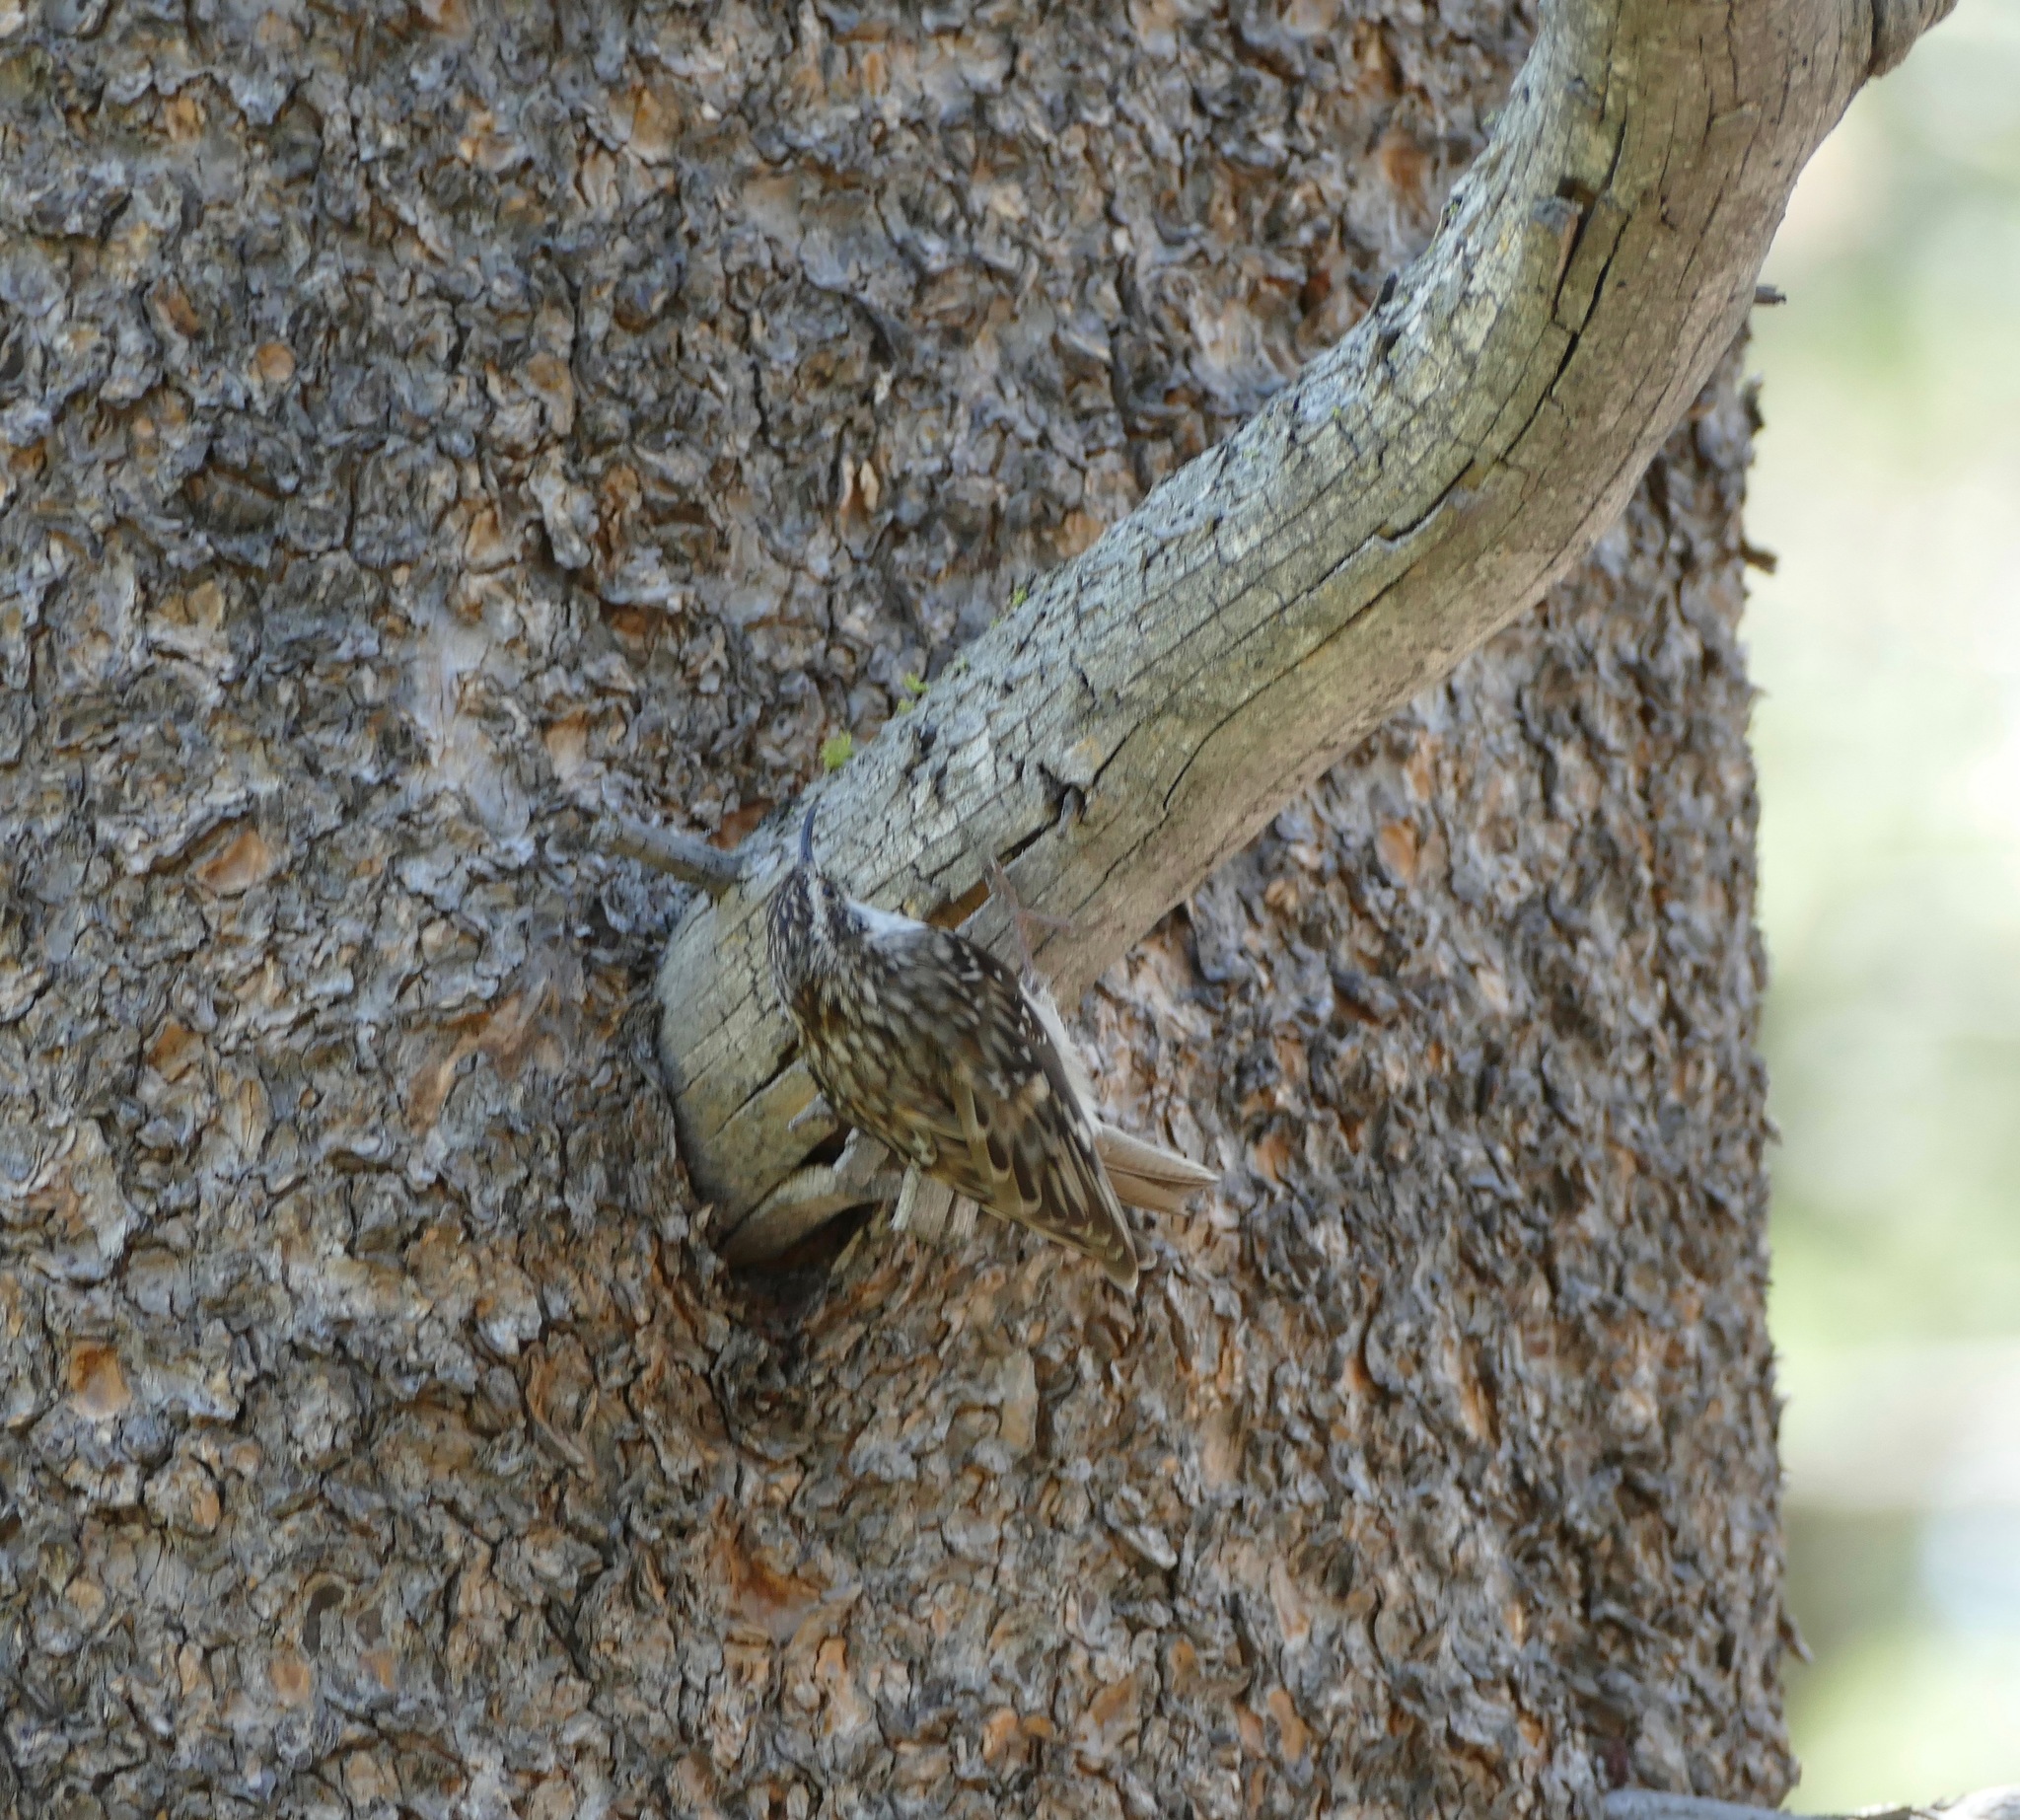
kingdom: Animalia
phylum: Chordata
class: Aves
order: Passeriformes
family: Certhiidae
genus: Certhia
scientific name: Certhia americana
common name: Brown creeper
